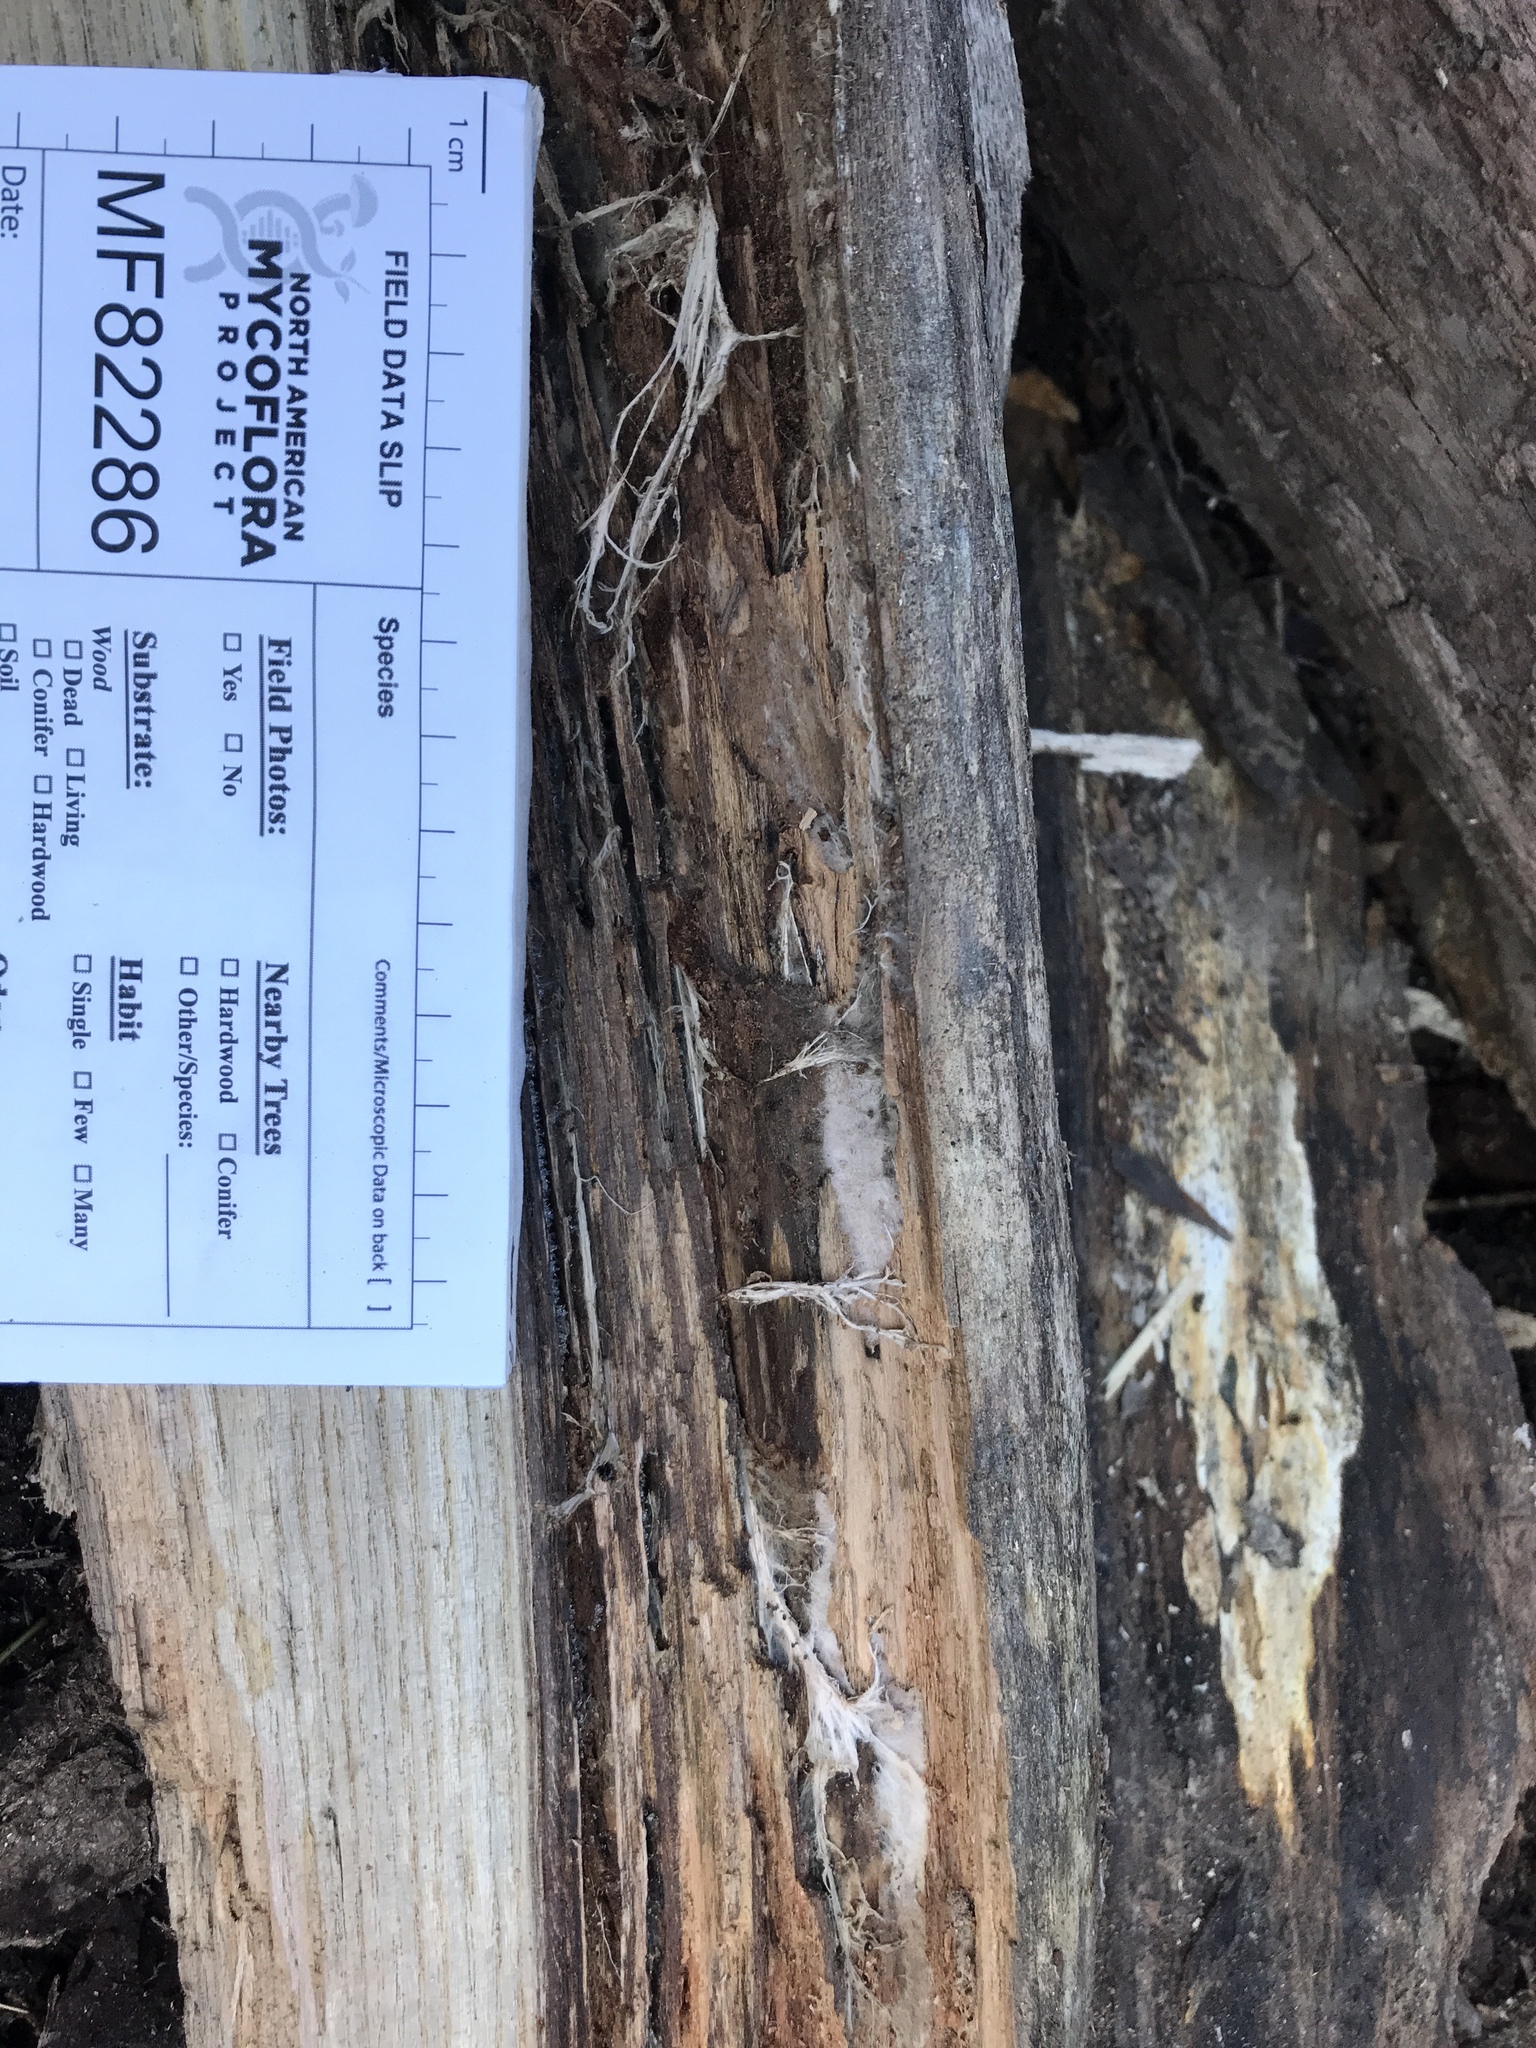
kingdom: Fungi
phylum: Basidiomycota
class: Agaricomycetes
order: Boletales
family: Serpulaceae
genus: Serpula
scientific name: Serpula himantioides
